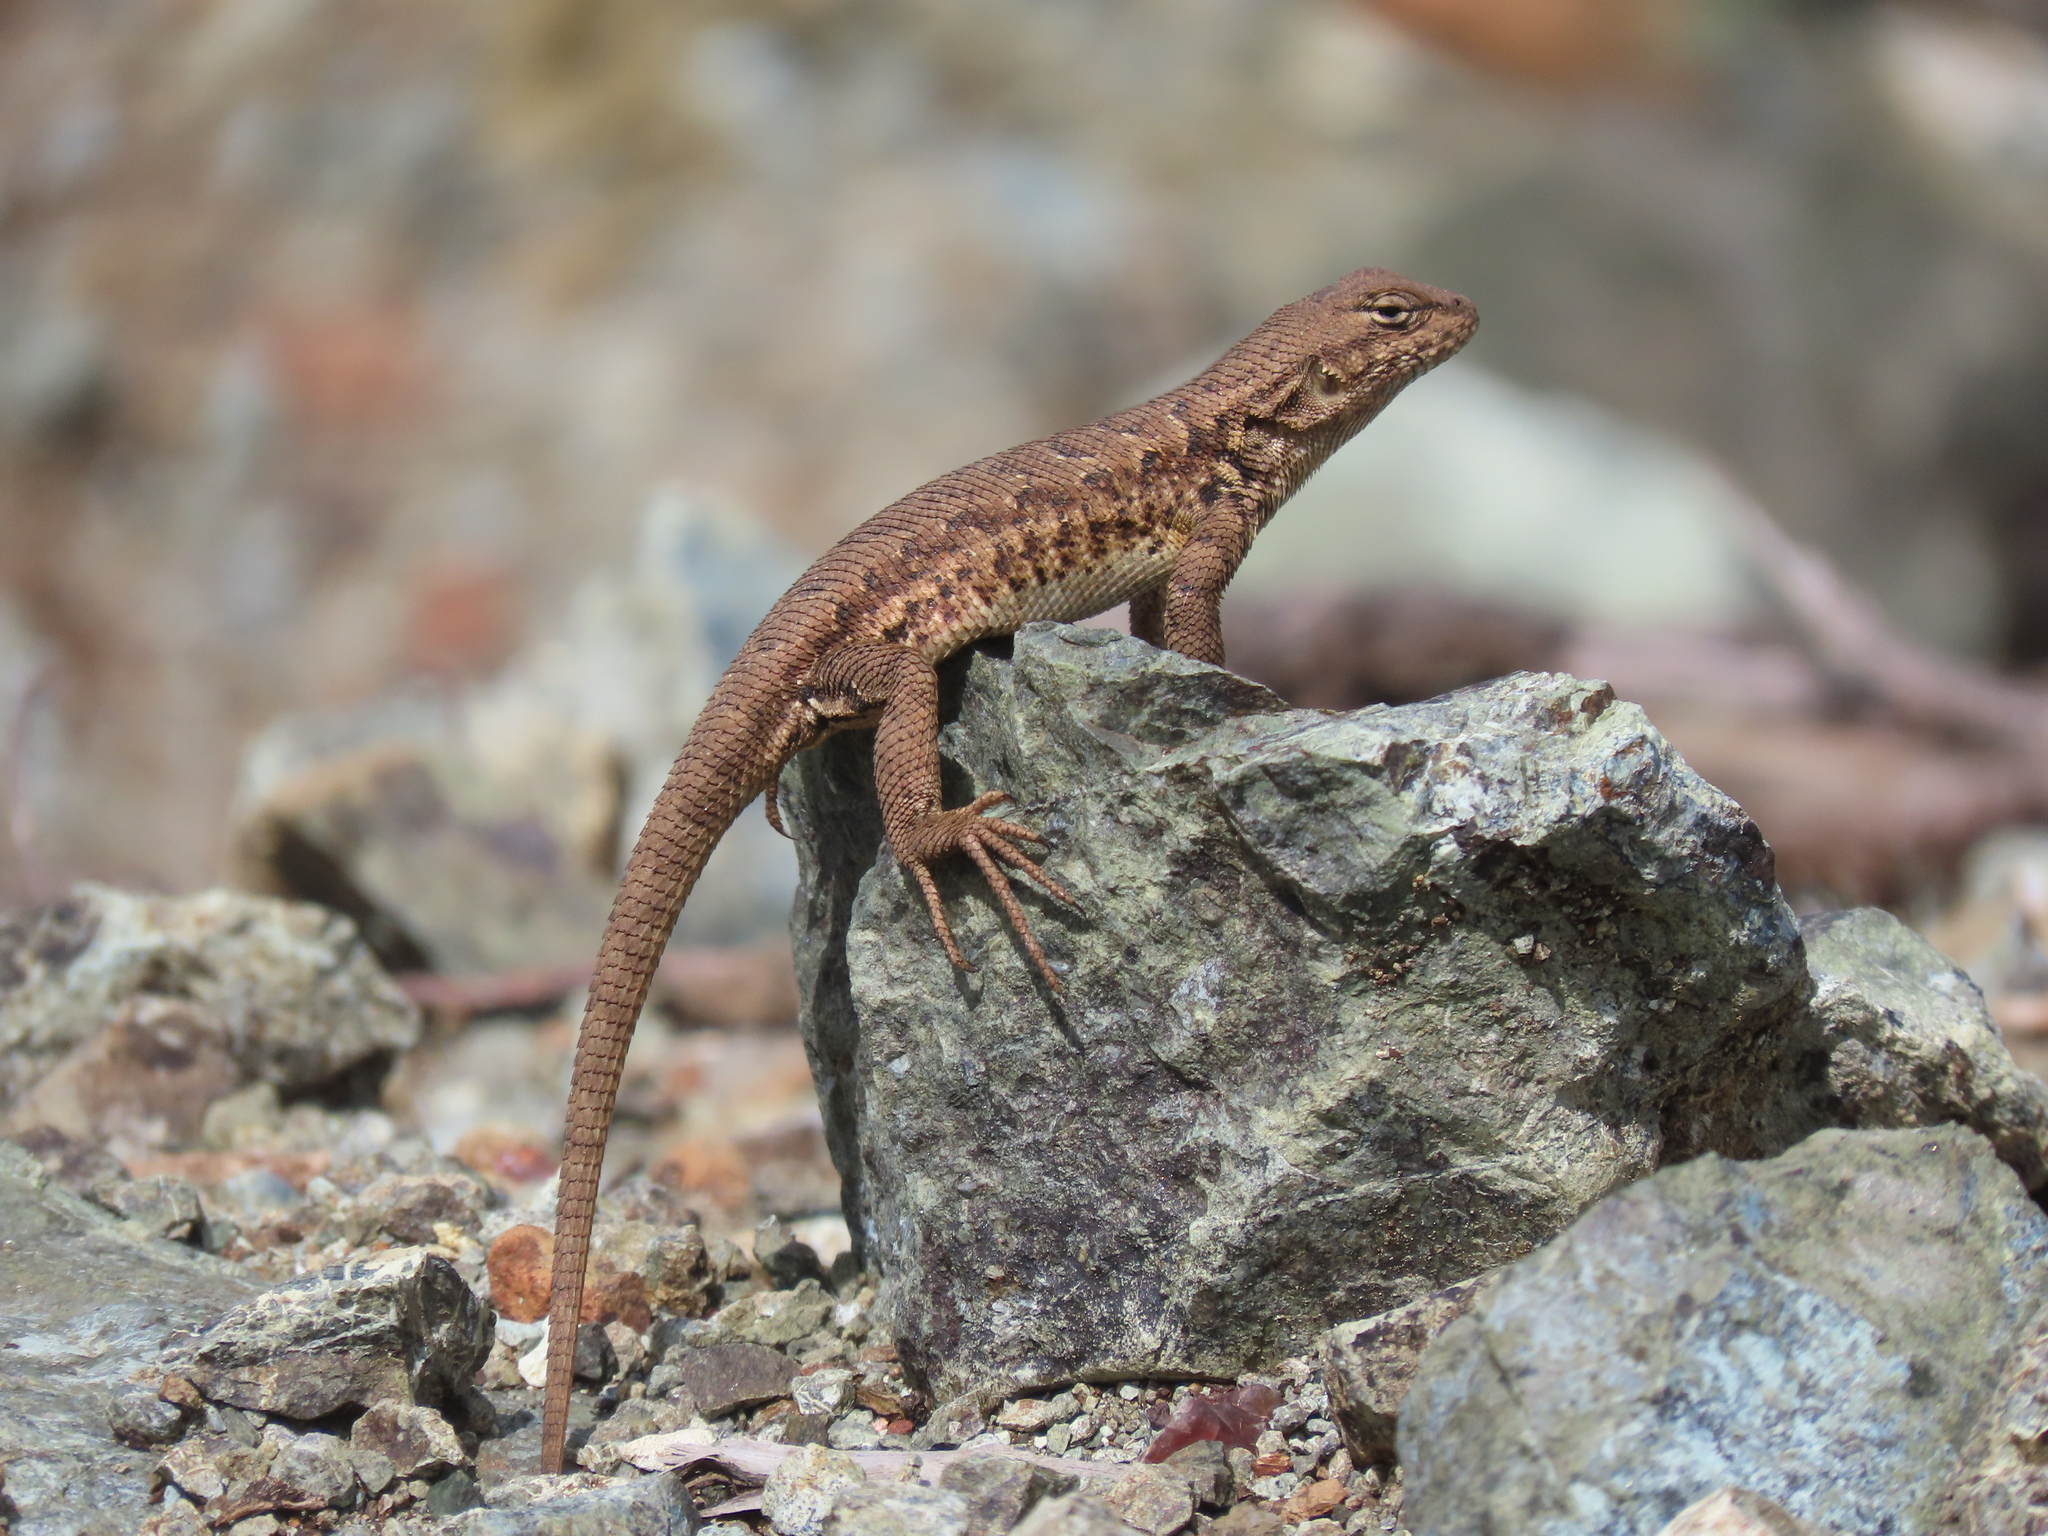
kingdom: Animalia
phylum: Chordata
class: Squamata
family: Phrynosomatidae
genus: Sceloporus
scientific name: Sceloporus graciosus
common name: Sagebrush lizard
